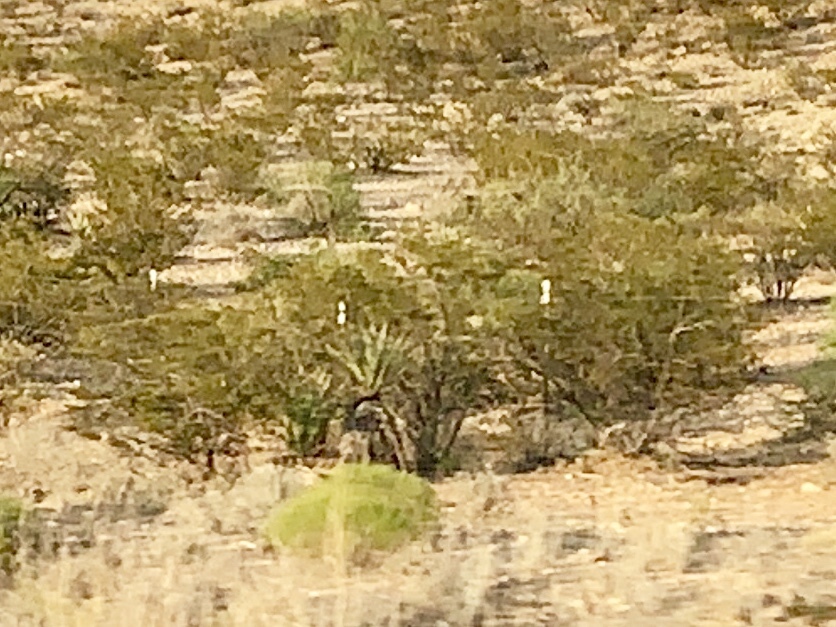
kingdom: Plantae
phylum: Tracheophyta
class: Magnoliopsida
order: Zygophyllales
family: Zygophyllaceae
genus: Larrea
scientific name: Larrea tridentata
